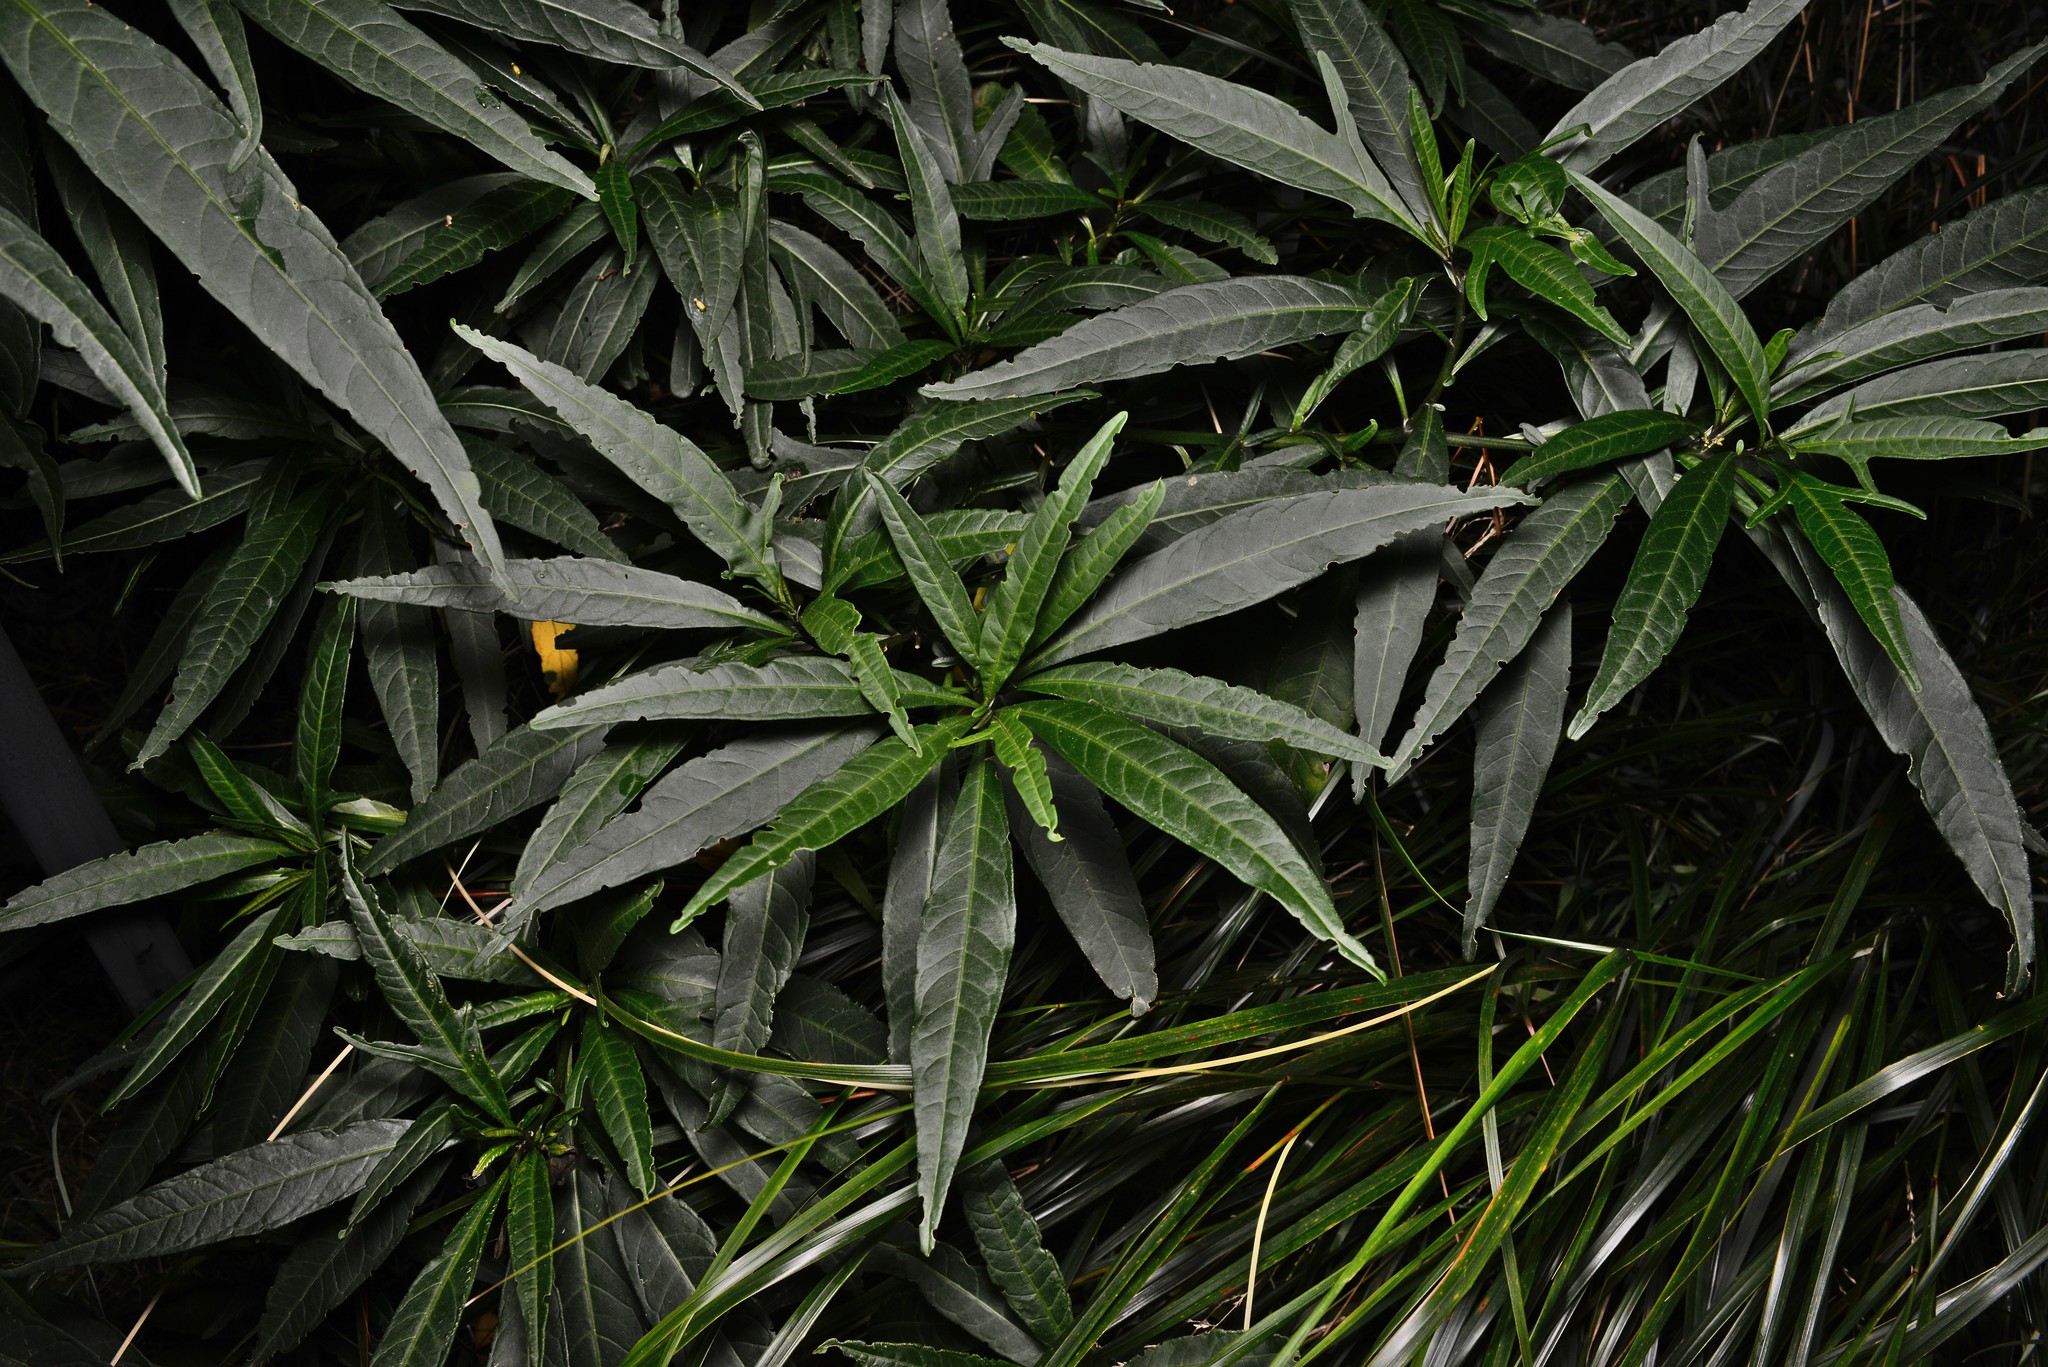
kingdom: Plantae
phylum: Tracheophyta
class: Magnoliopsida
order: Solanales
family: Solanaceae
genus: Solanum
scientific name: Solanum laciniatum
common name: Kangaroo-apple
